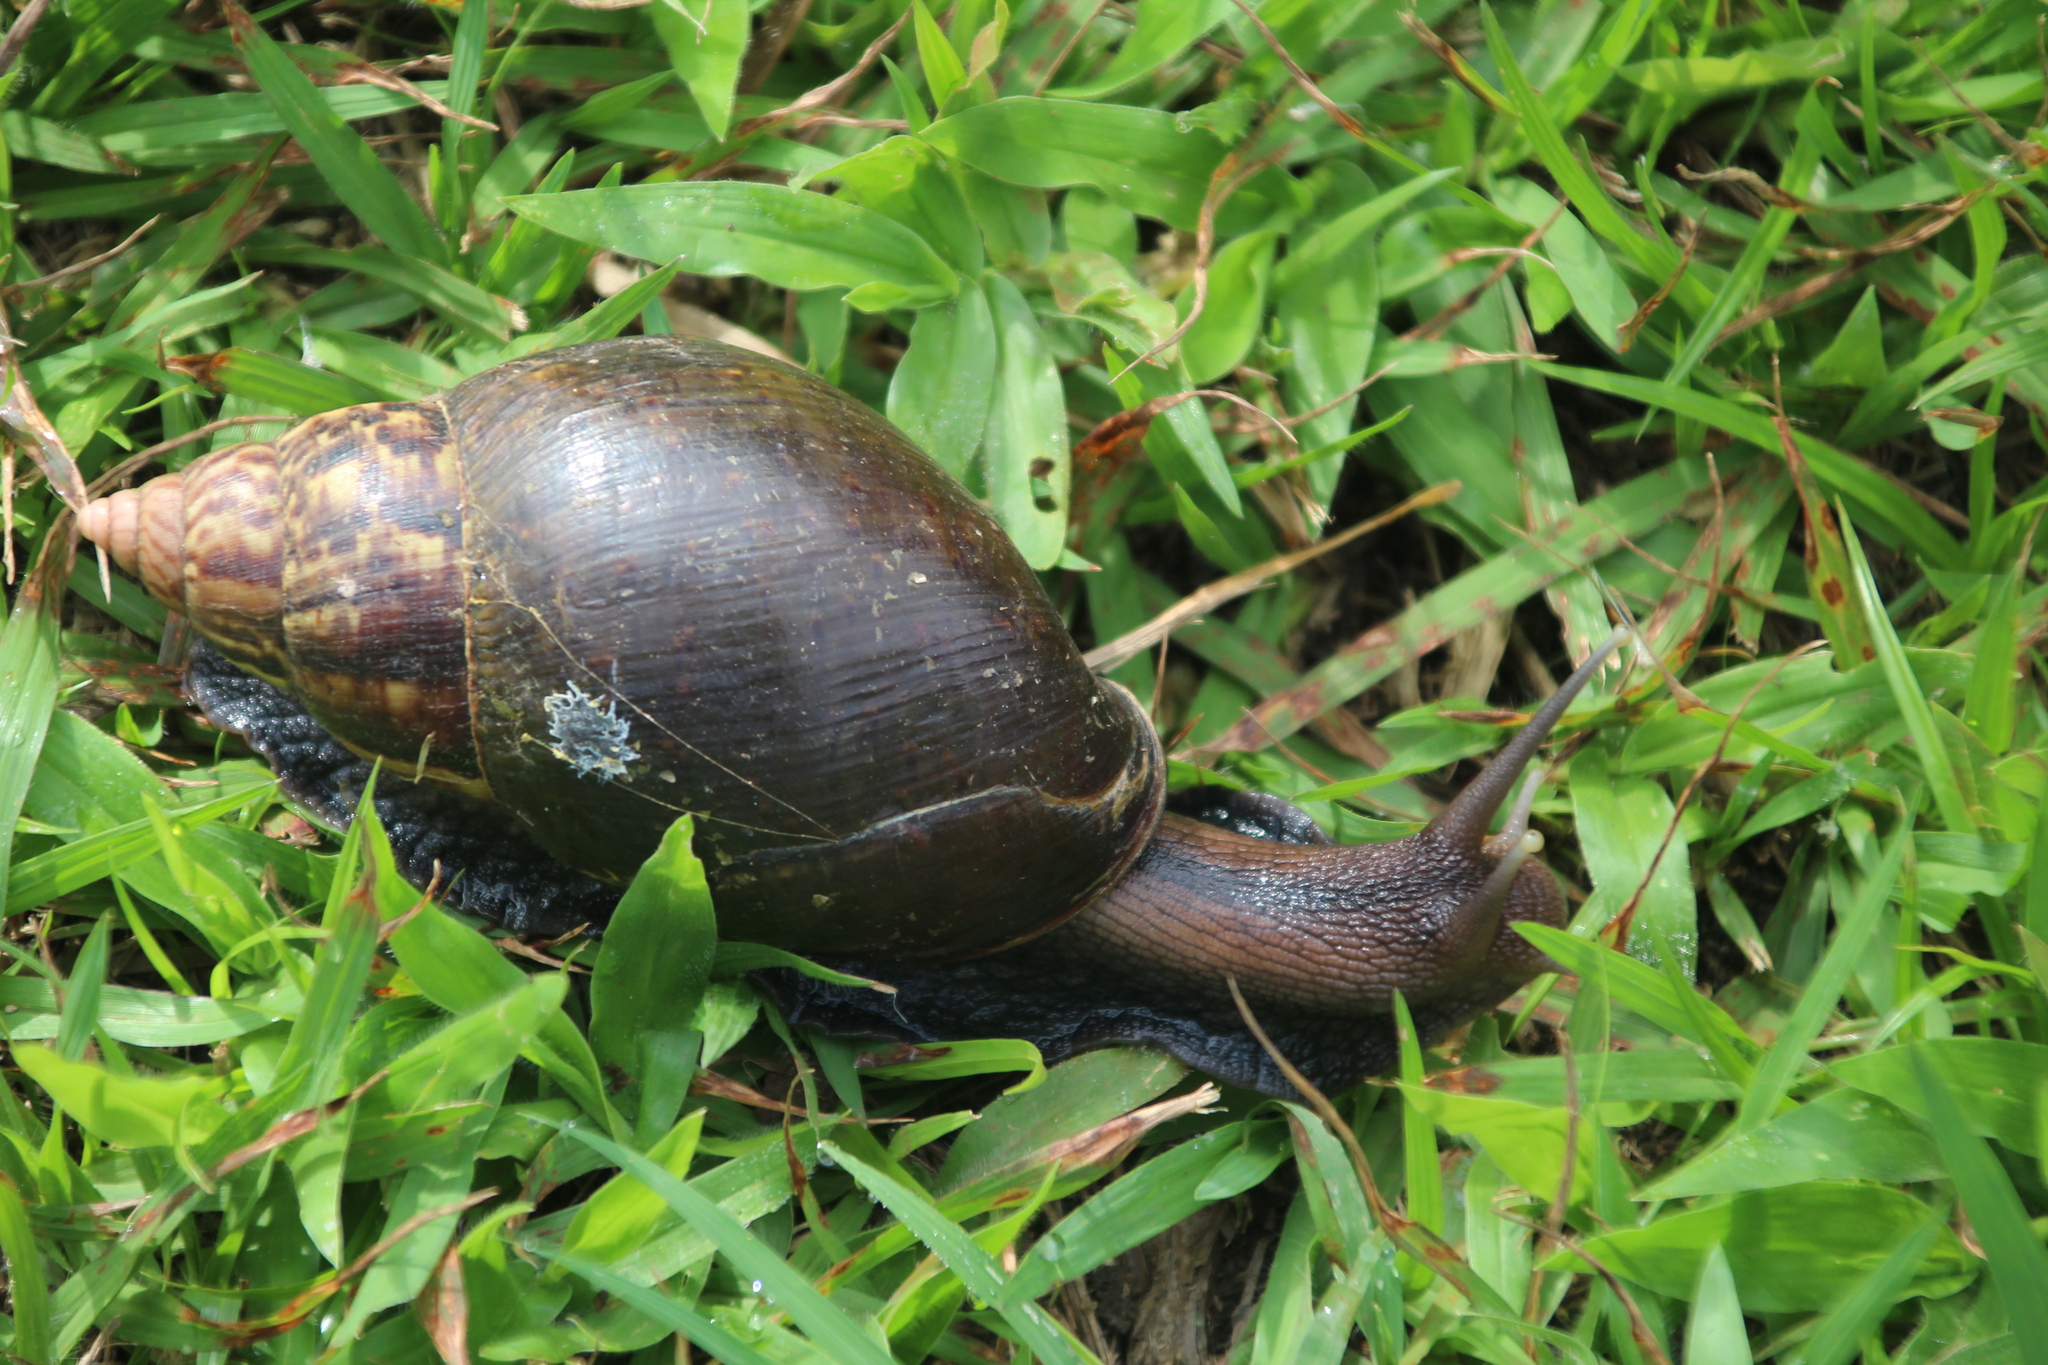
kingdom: Animalia
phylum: Mollusca
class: Gastropoda
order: Stylommatophora
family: Achatinidae
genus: Lissachatina
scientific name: Lissachatina fulica
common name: Giant african snail
